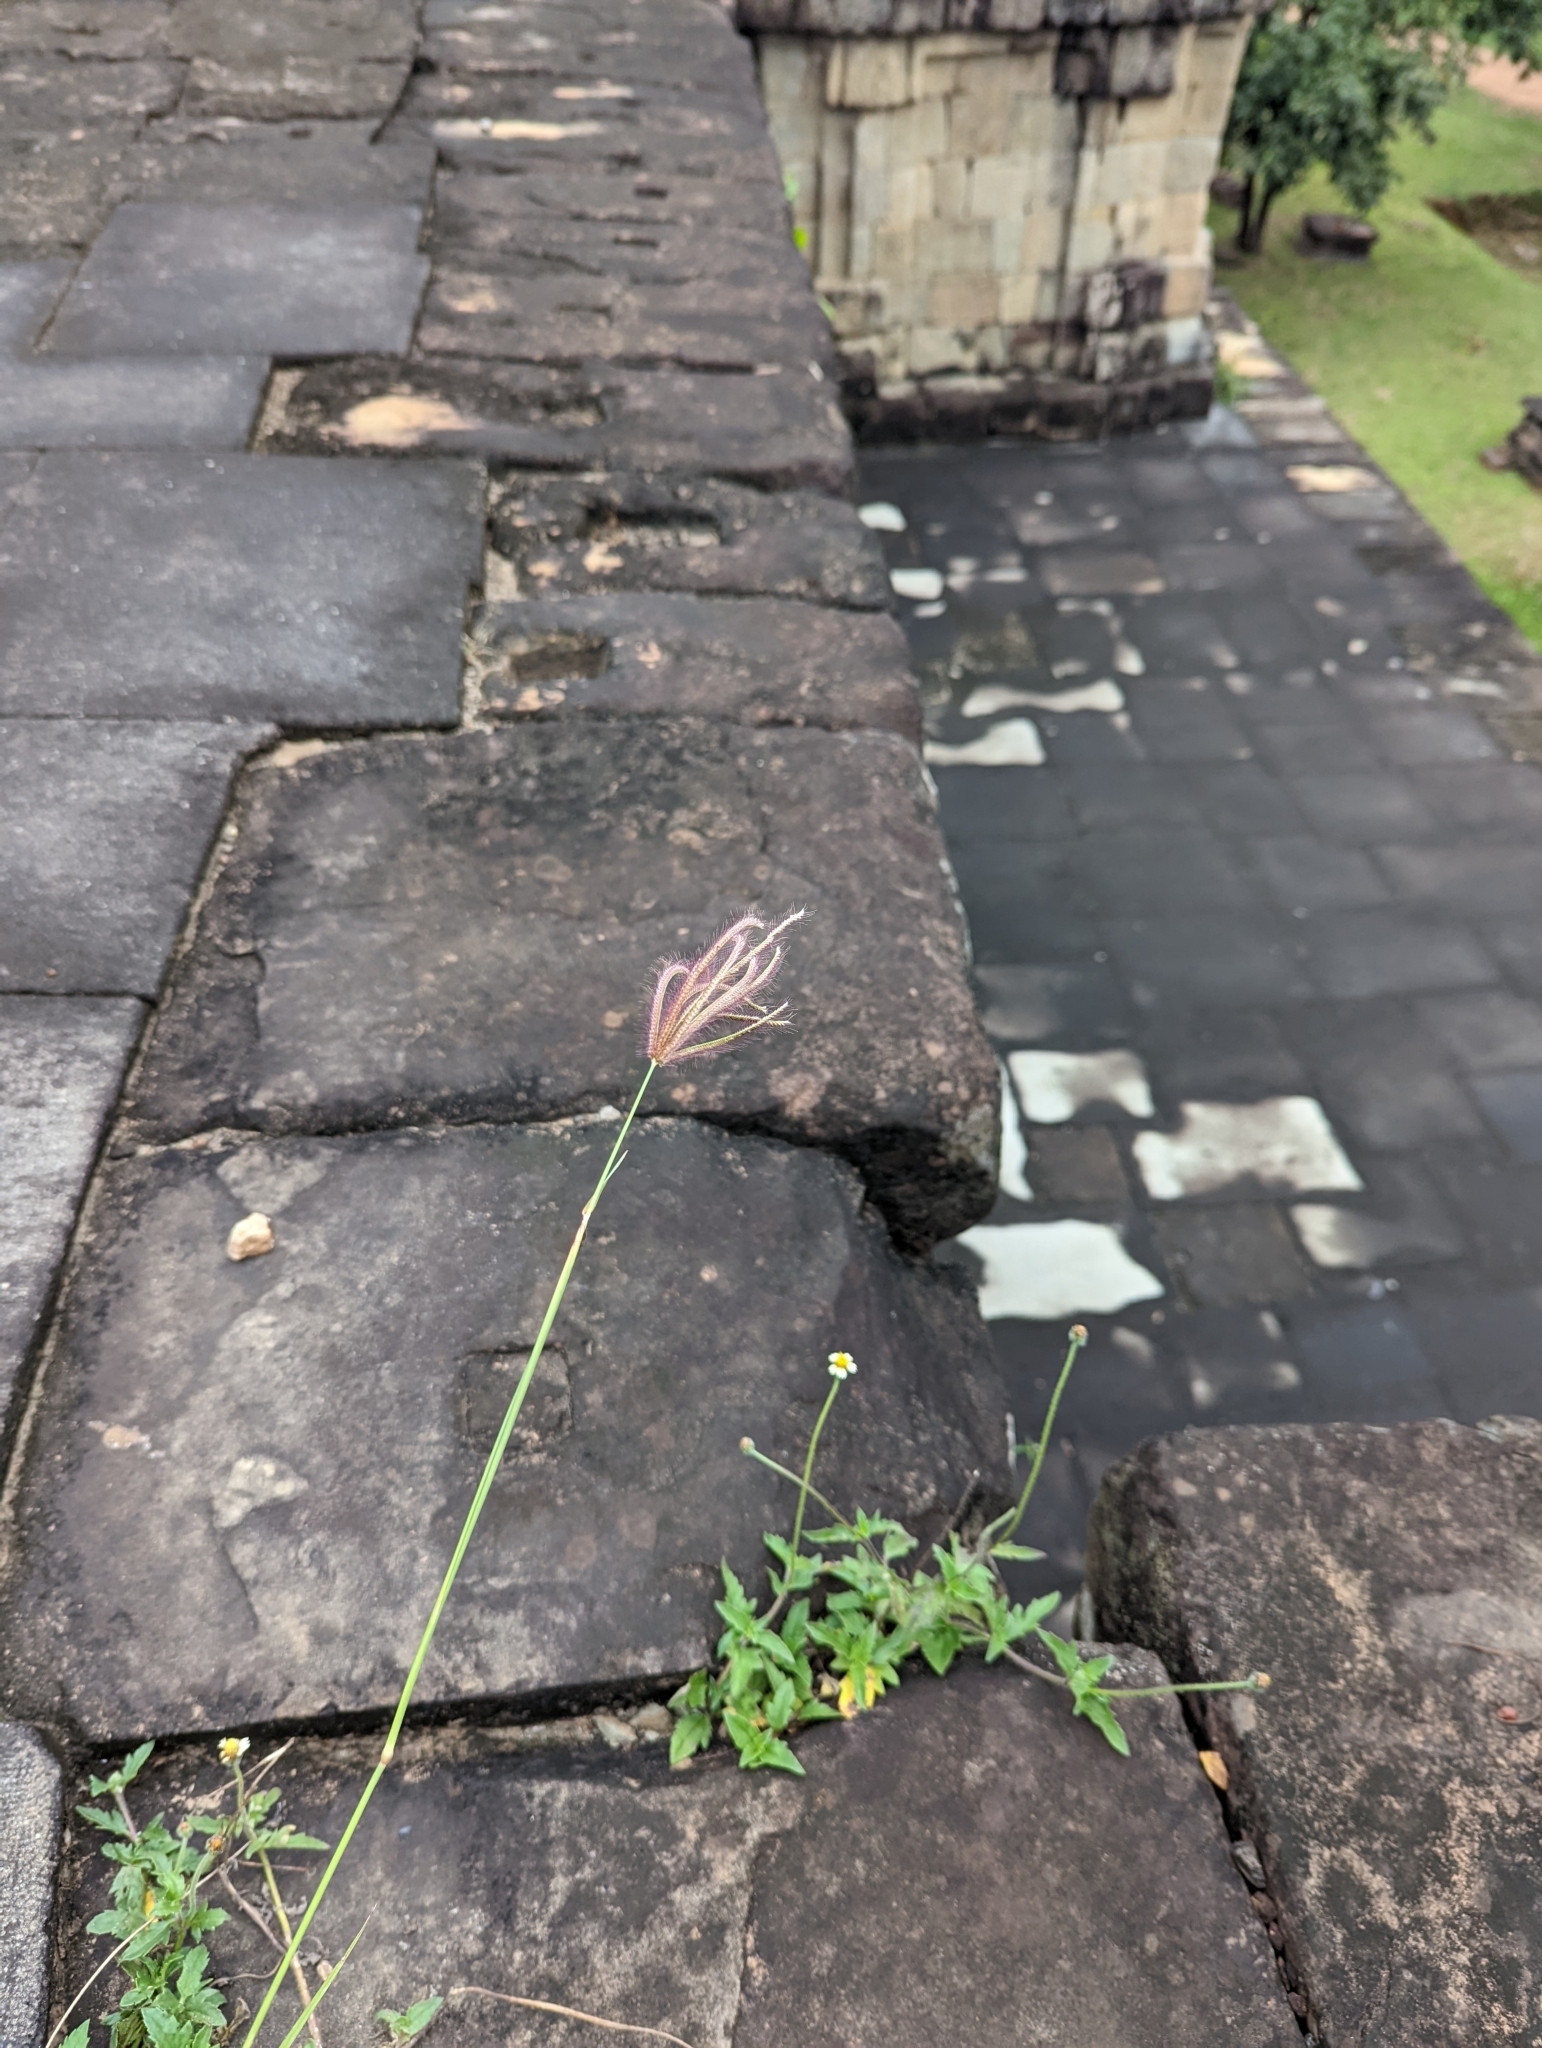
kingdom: Plantae
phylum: Tracheophyta
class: Liliopsida
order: Poales
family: Poaceae
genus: Chloris
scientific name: Chloris barbata
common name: Swollen fingergrass
